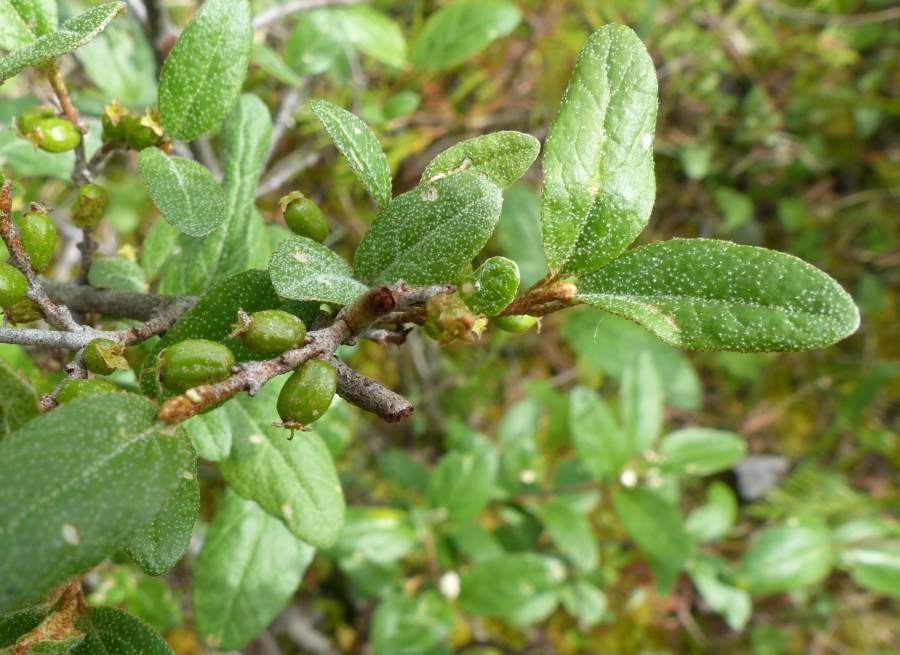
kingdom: Plantae
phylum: Tracheophyta
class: Magnoliopsida
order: Rosales
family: Elaeagnaceae
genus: Shepherdia
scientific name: Shepherdia canadensis
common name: Soapberry
